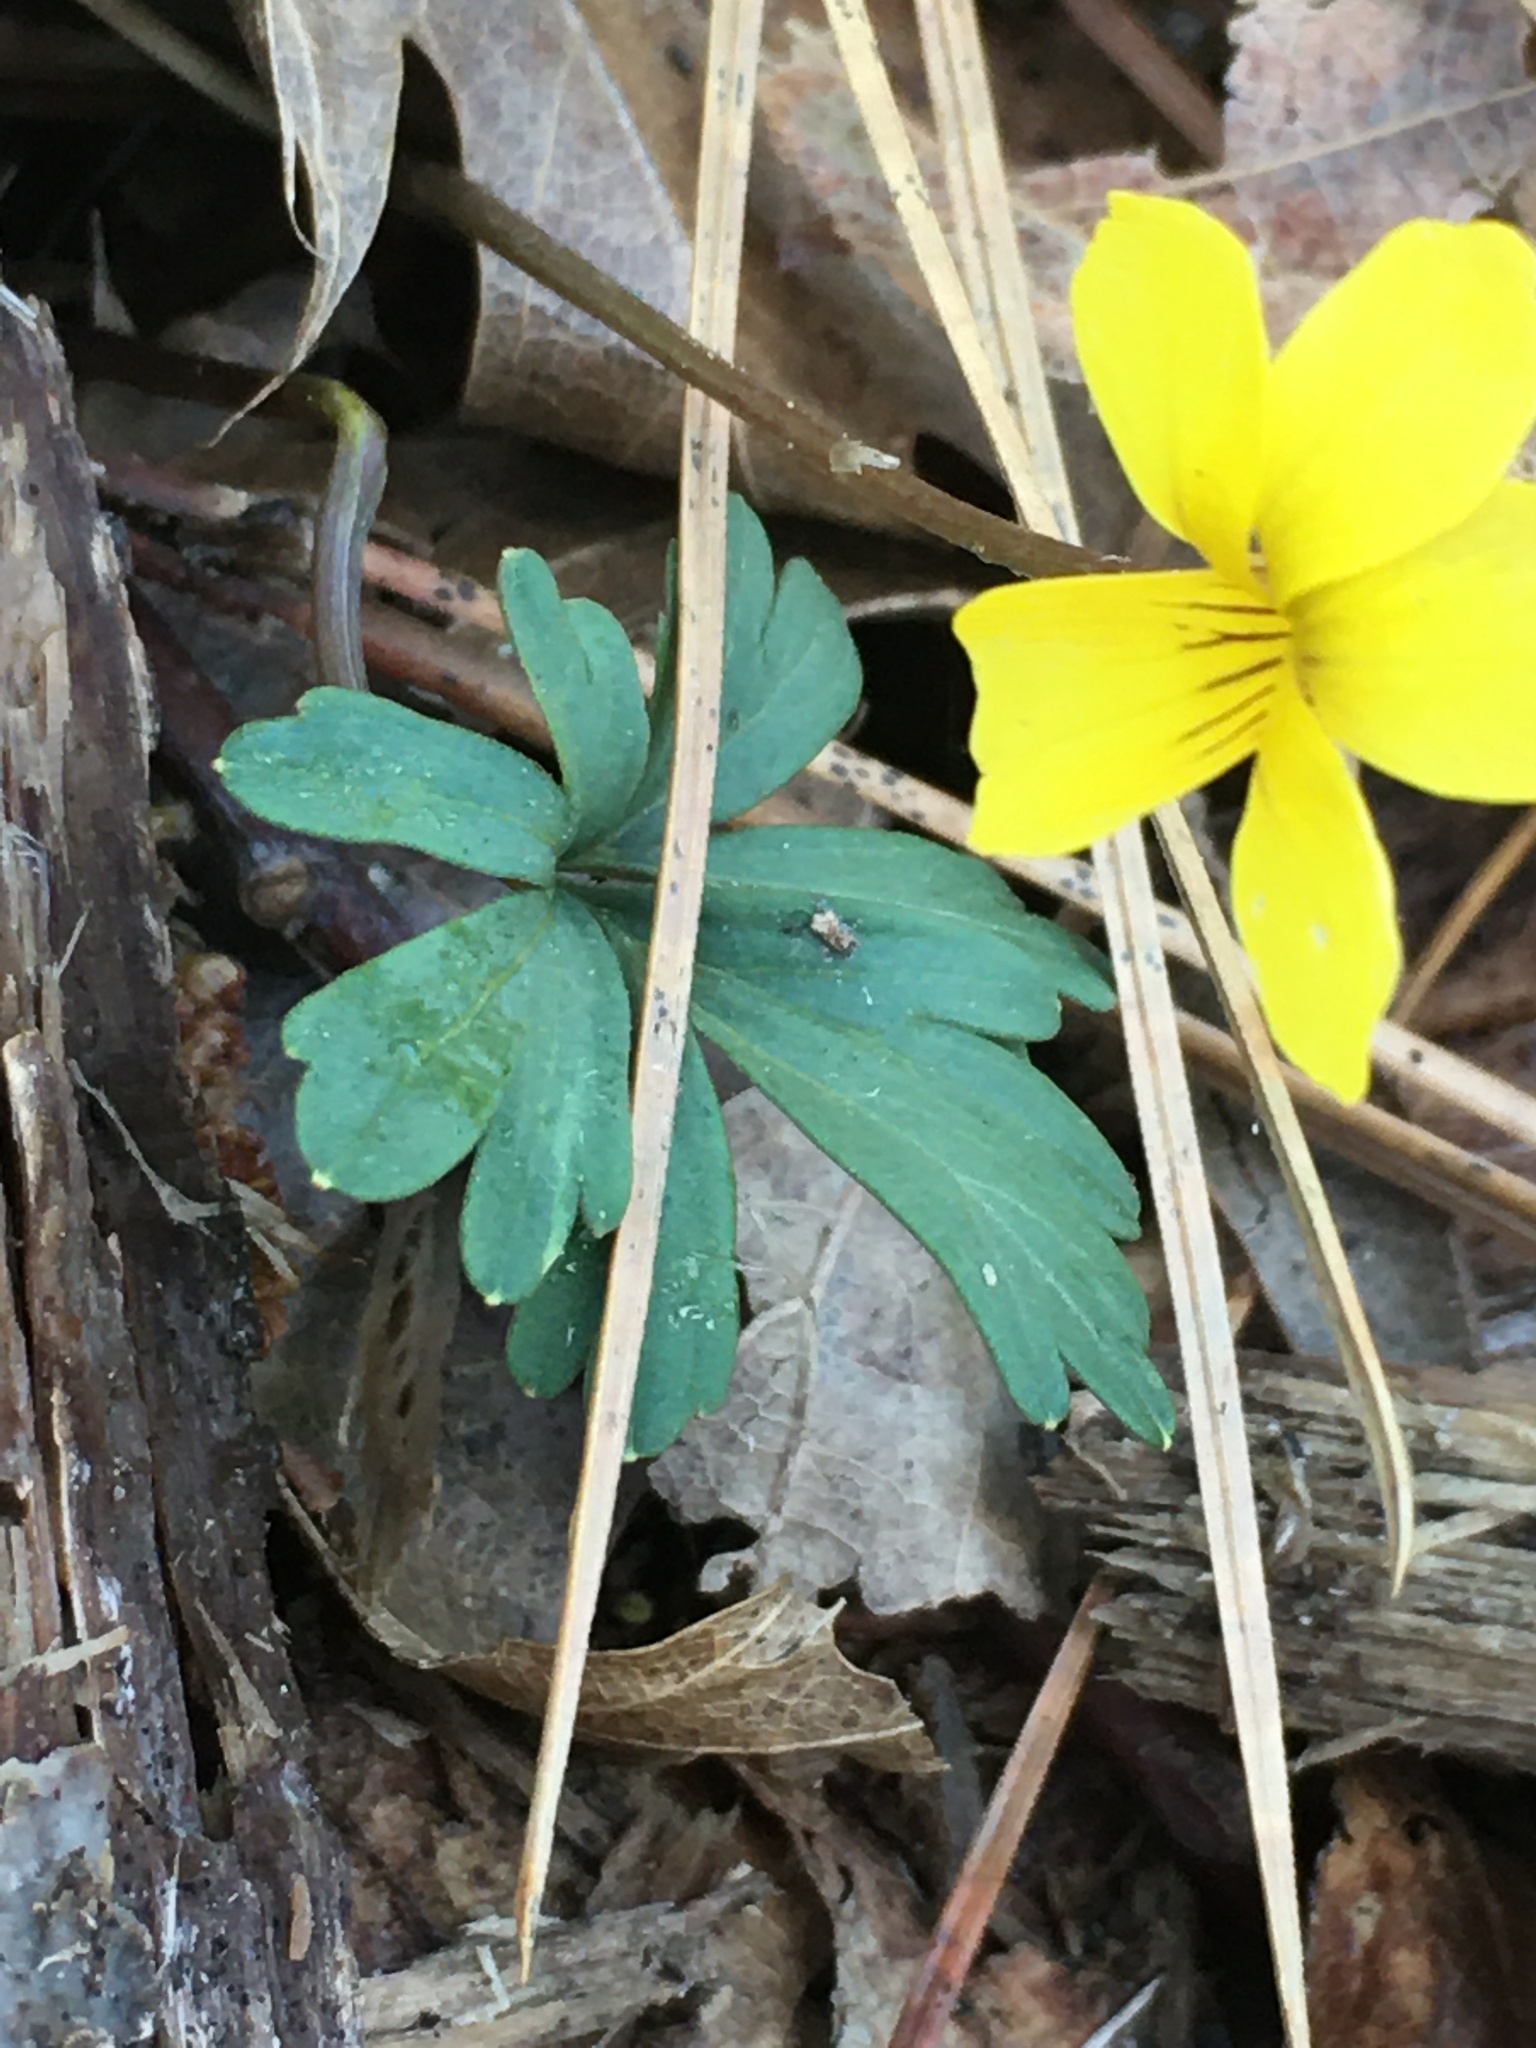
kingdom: Plantae
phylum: Tracheophyta
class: Magnoliopsida
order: Malpighiales
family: Violaceae
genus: Viola
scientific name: Viola sheltonii
